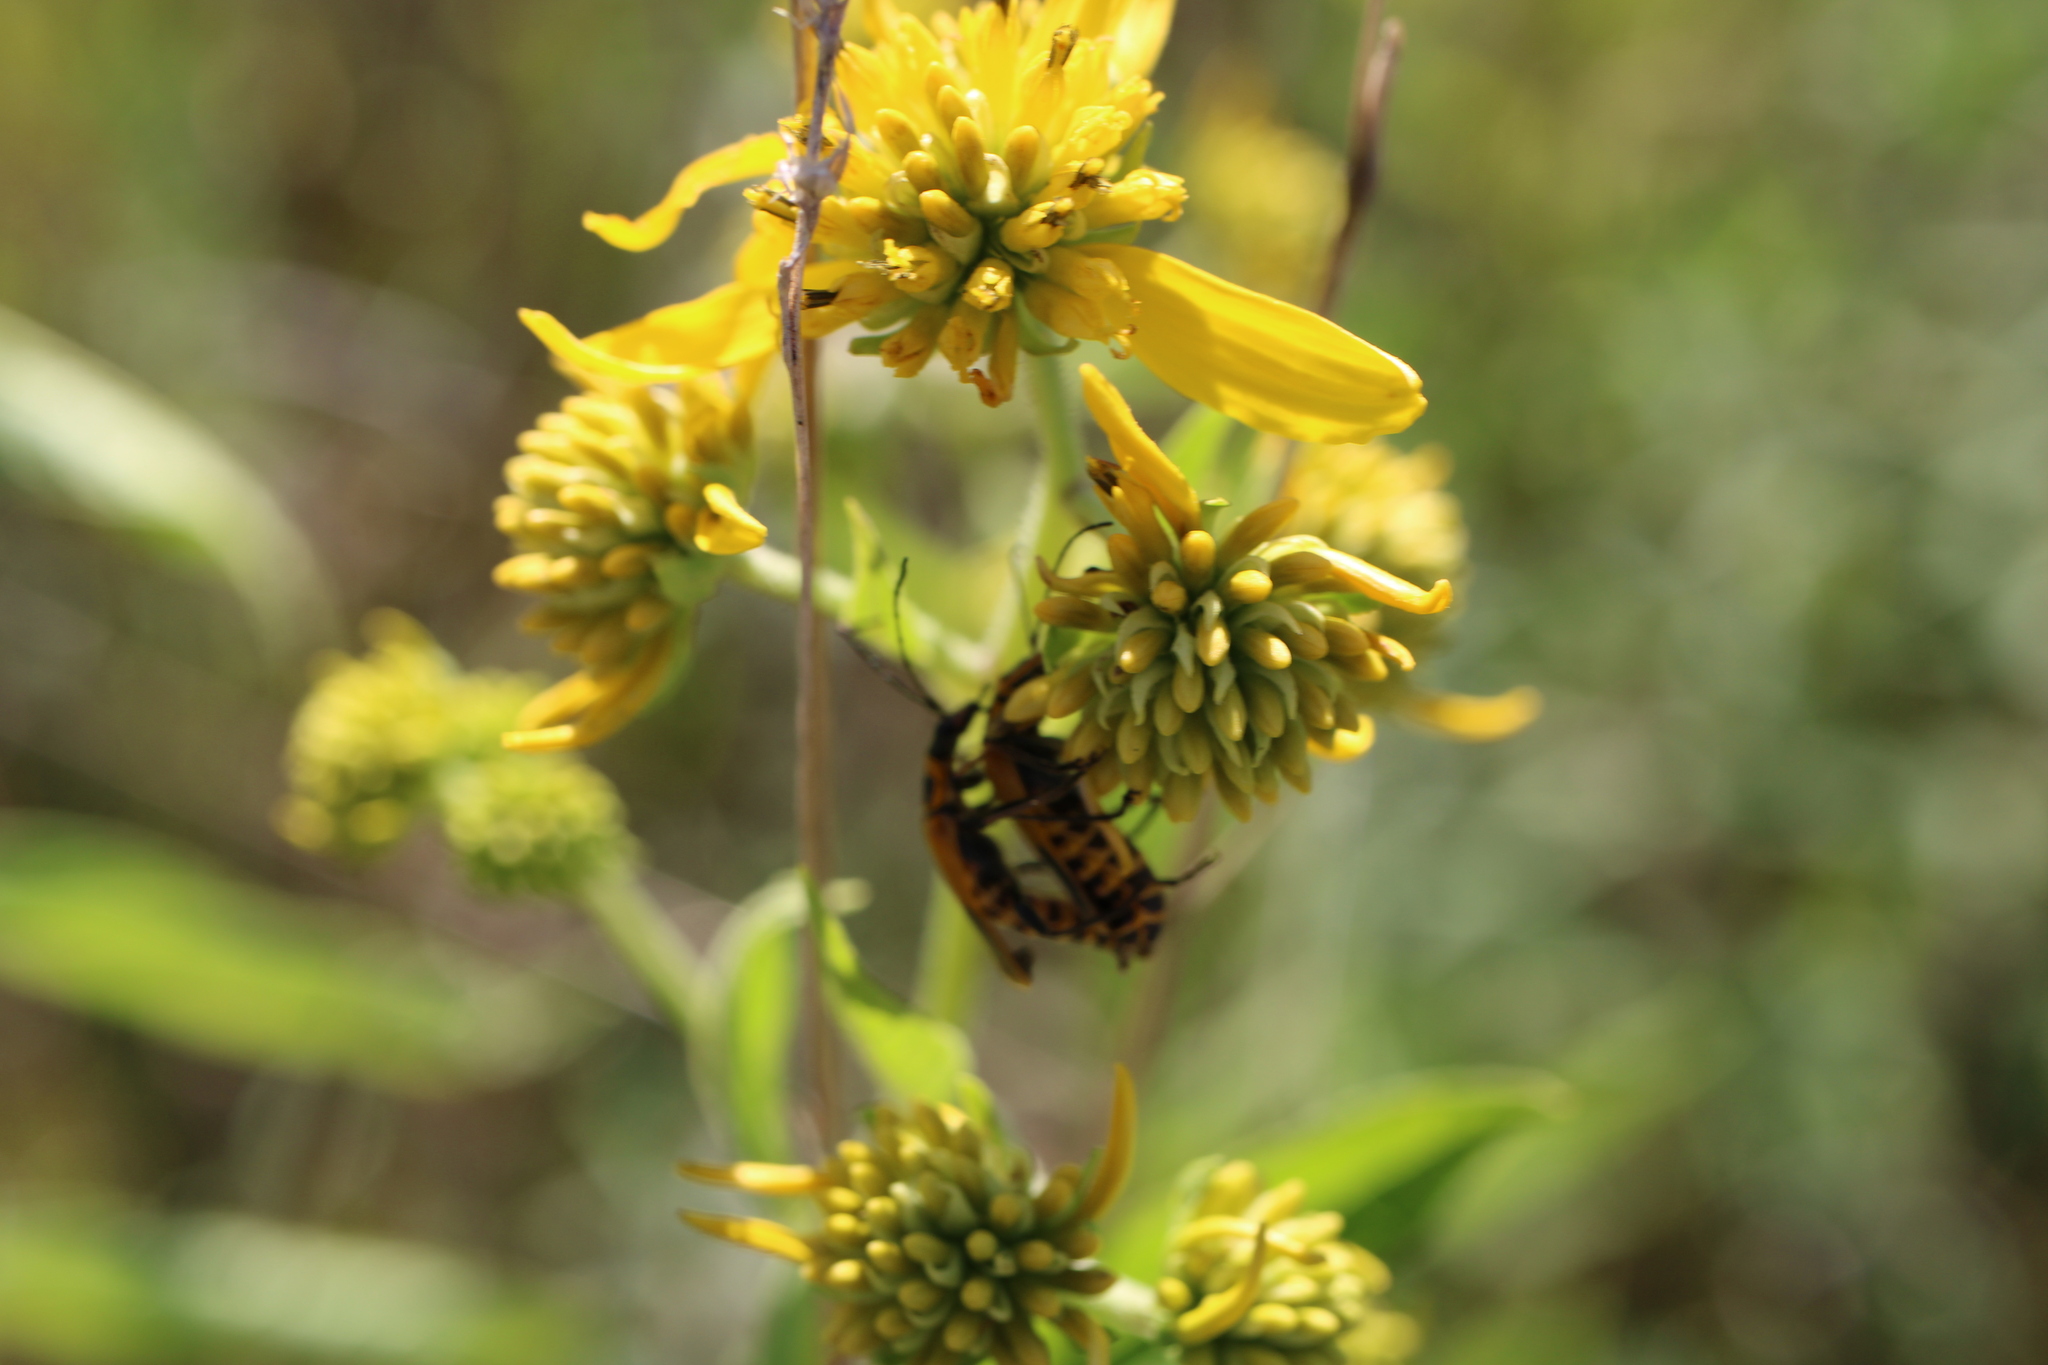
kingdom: Plantae
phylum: Tracheophyta
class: Magnoliopsida
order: Asterales
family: Asteraceae
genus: Verbesina
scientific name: Verbesina alternifolia
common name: Wingstem
